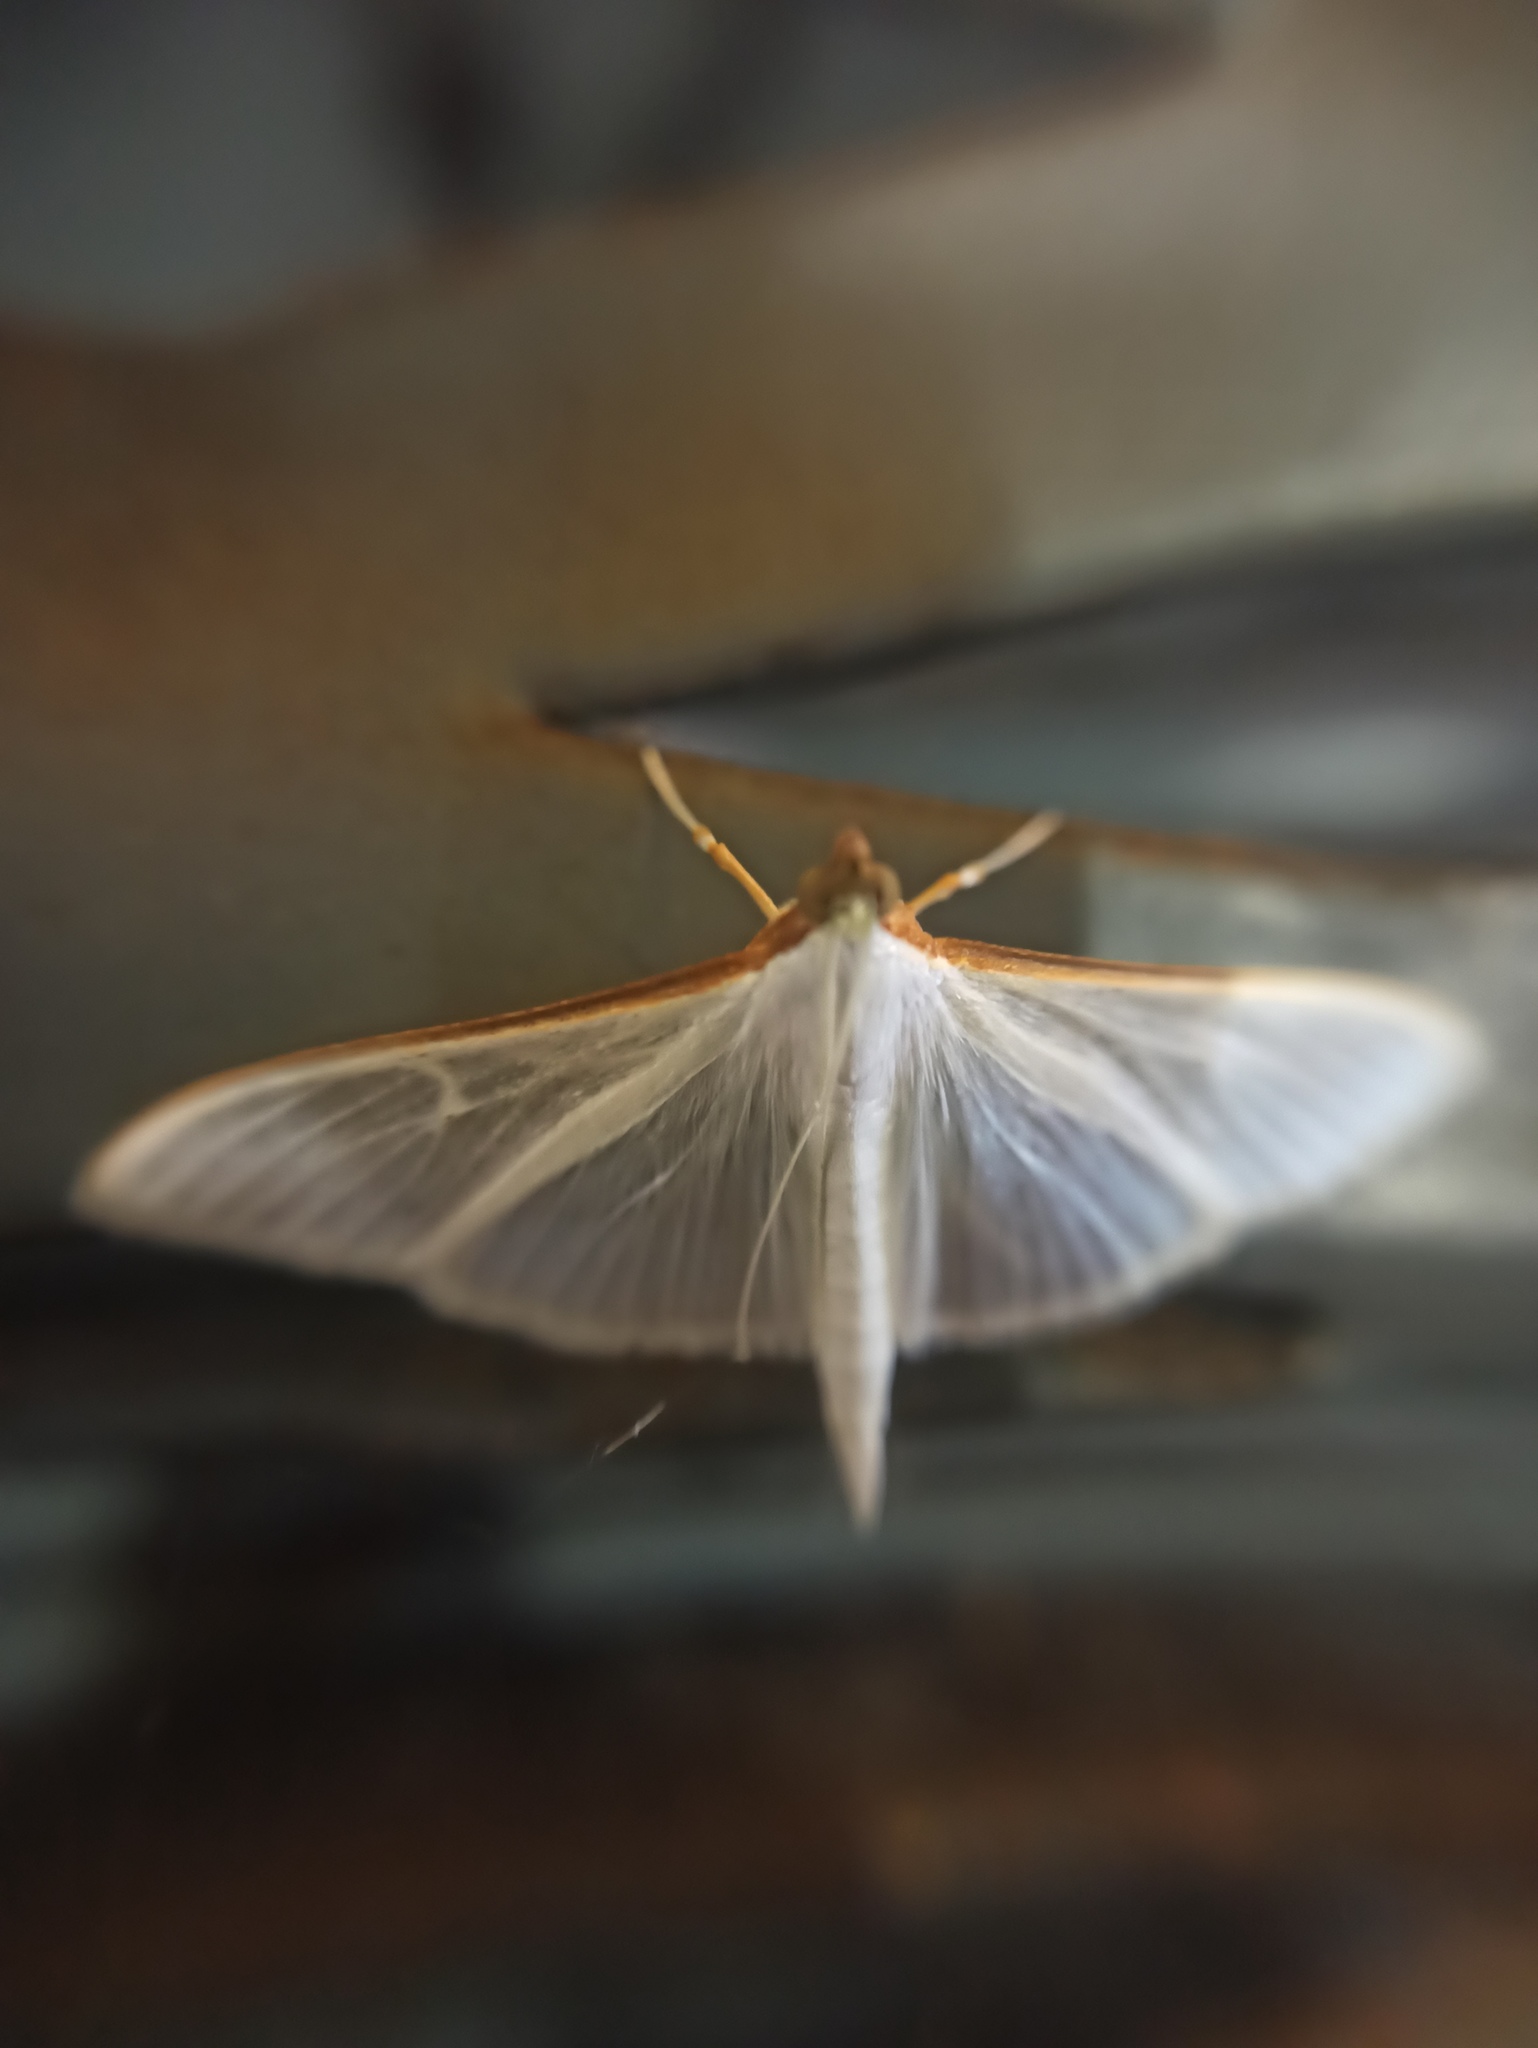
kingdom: Animalia
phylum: Arthropoda
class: Insecta
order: Lepidoptera
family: Crambidae
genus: Palpita
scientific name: Palpita vitrealis
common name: Olive-tree pearl
